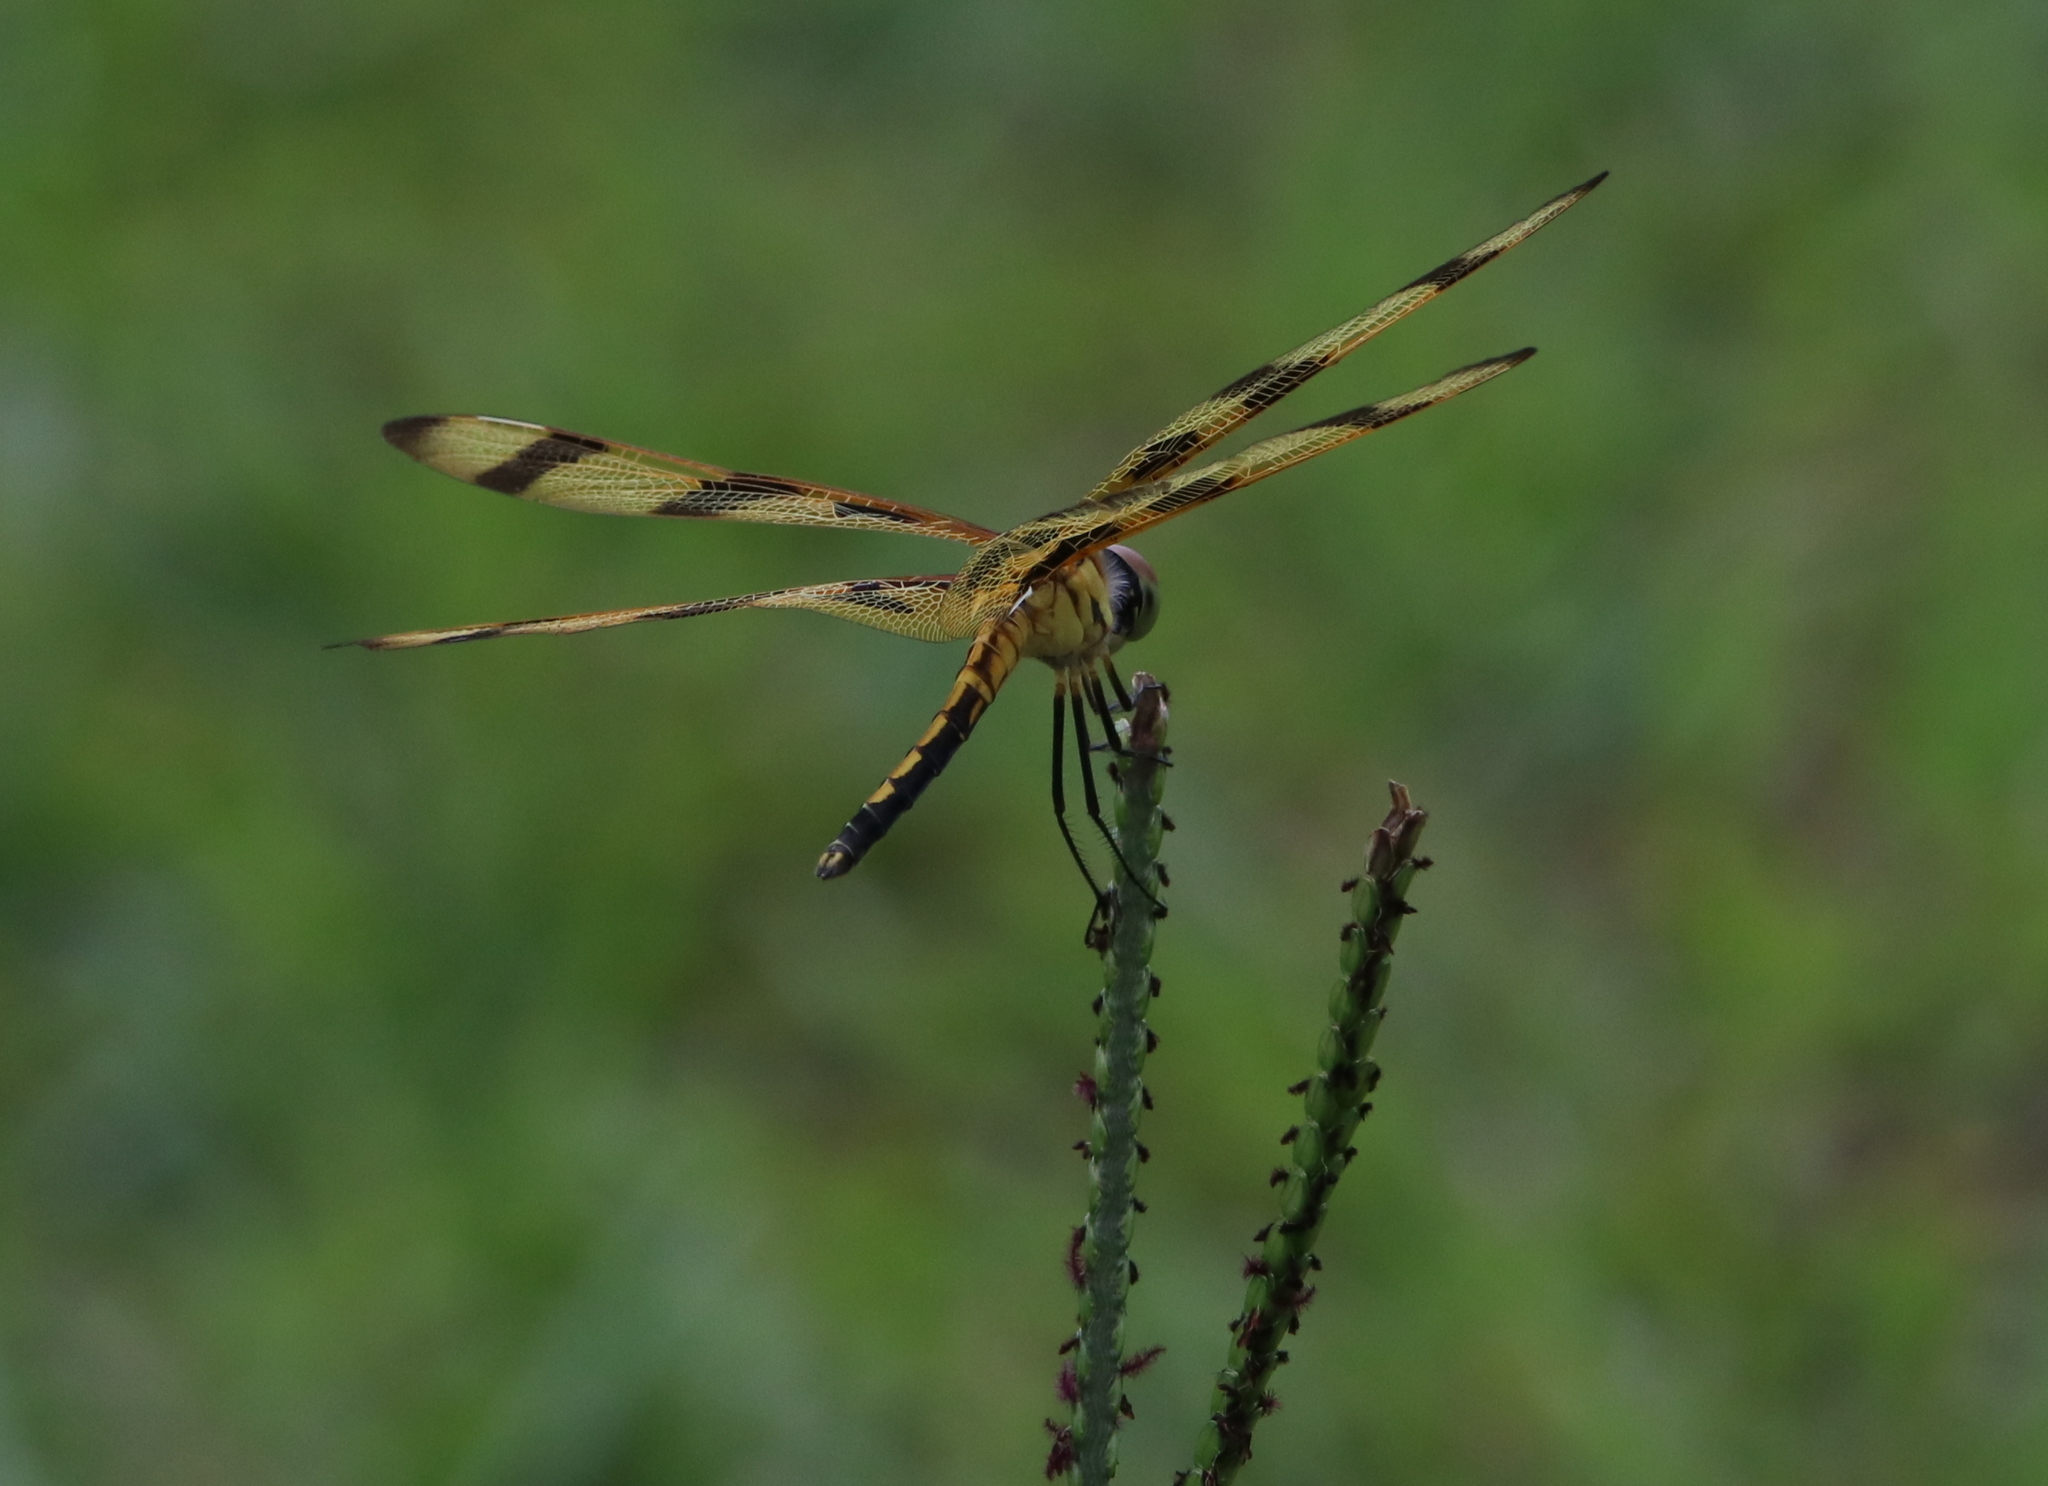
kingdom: Animalia
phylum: Arthropoda
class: Insecta
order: Odonata
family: Libellulidae
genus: Celithemis
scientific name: Celithemis eponina
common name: Halloween pennant
